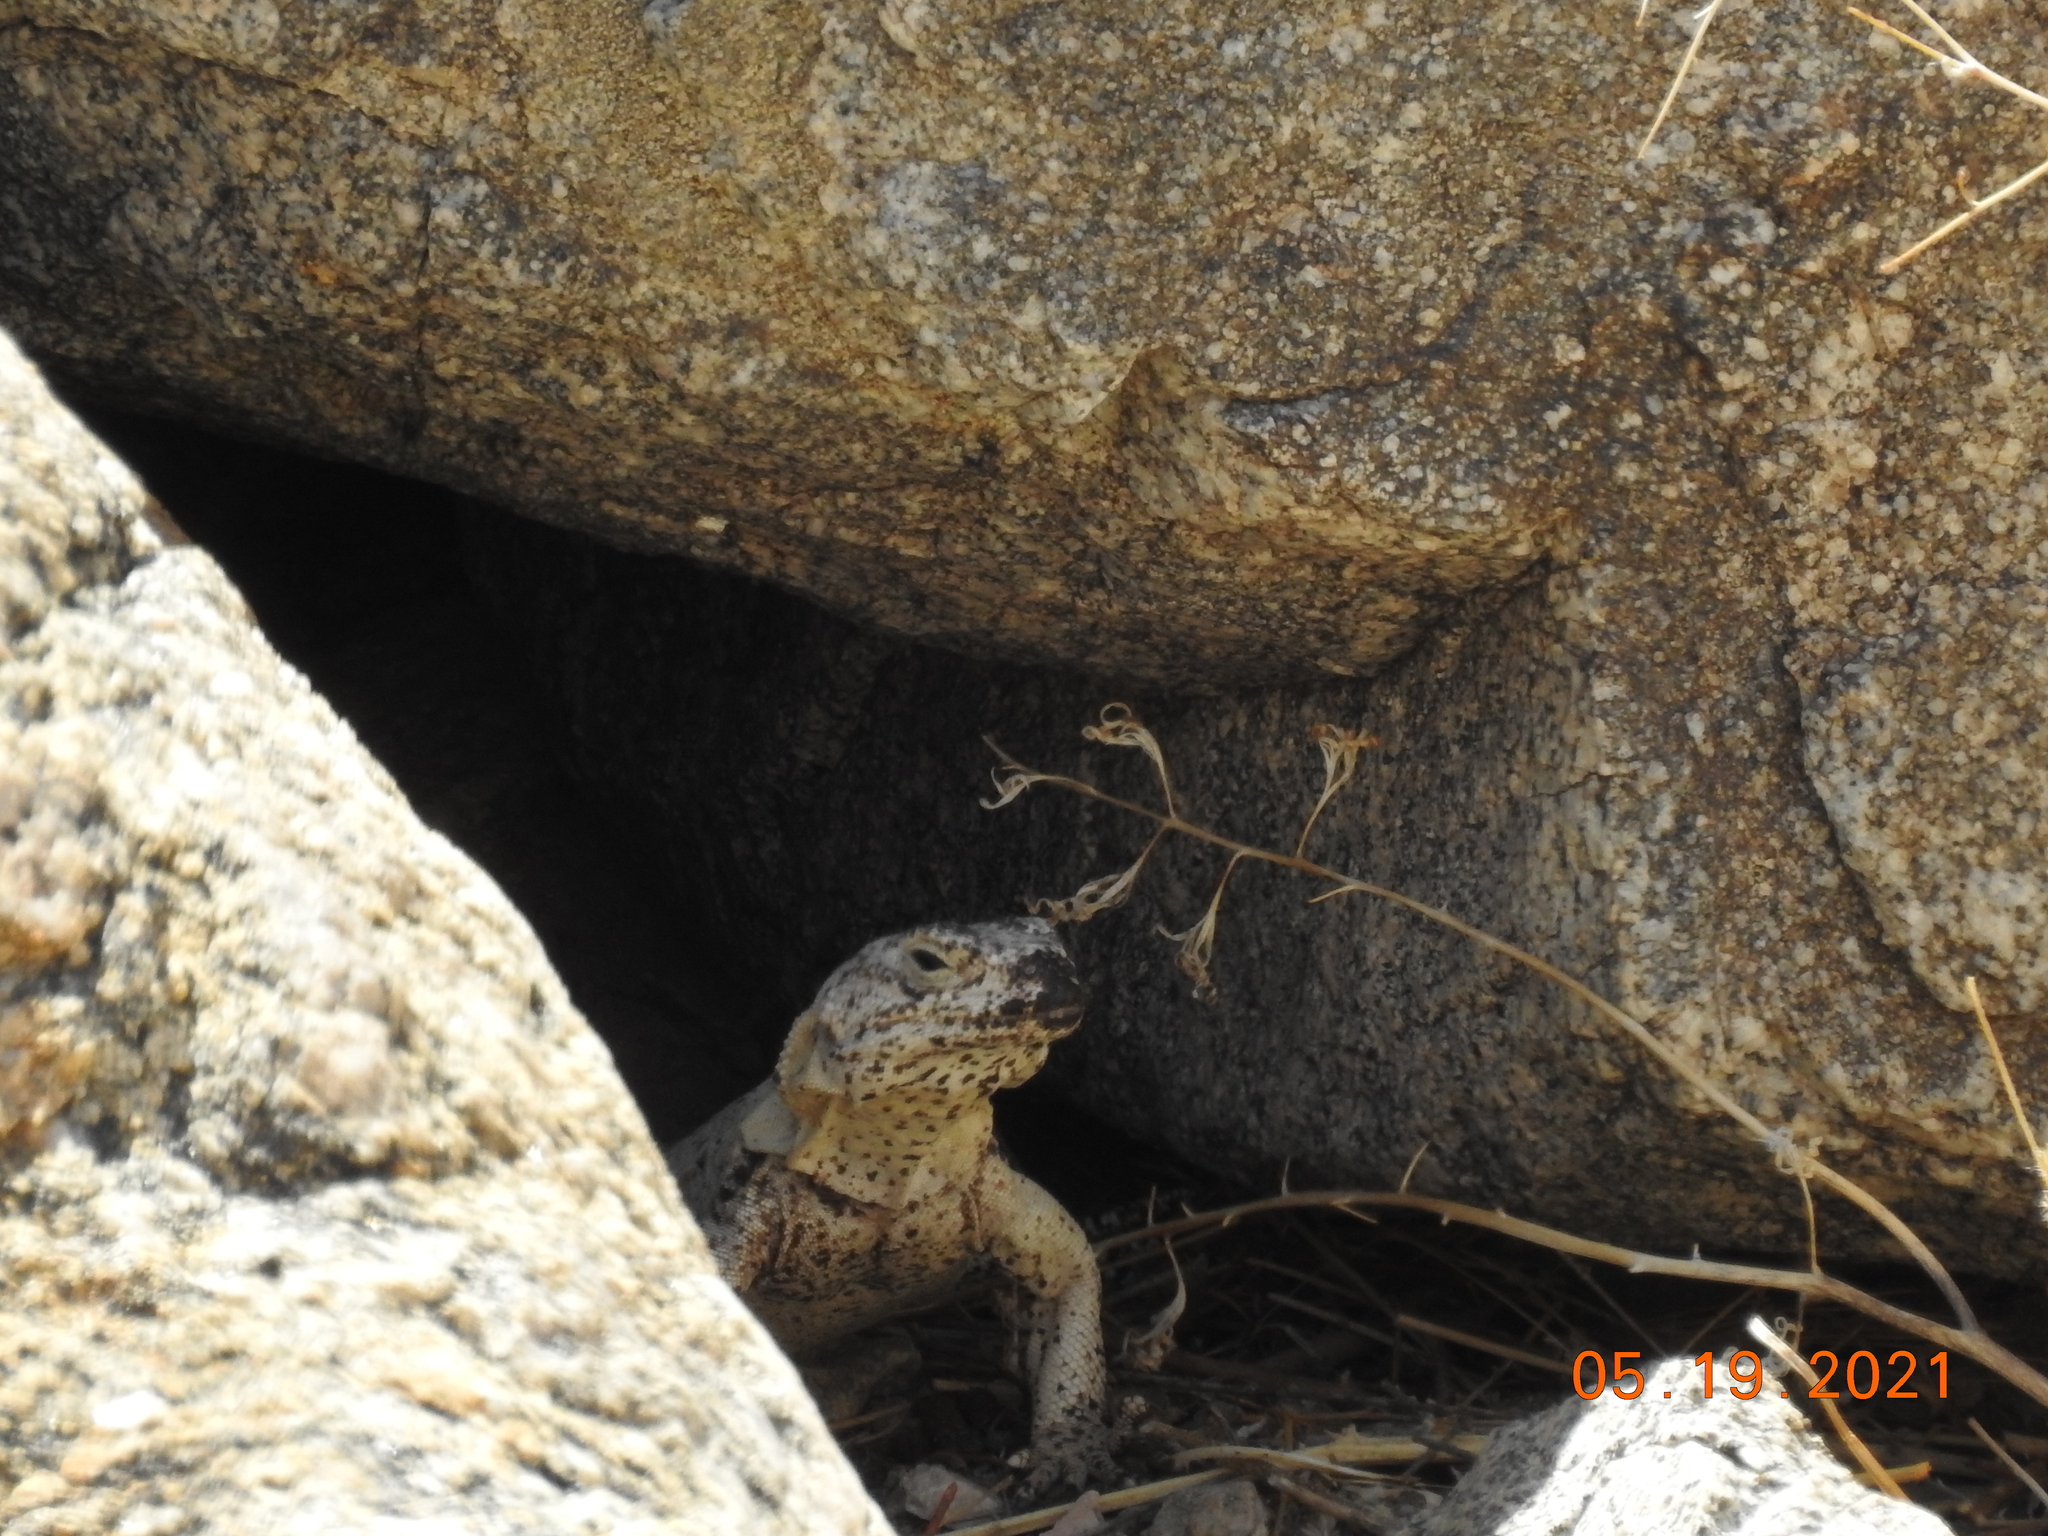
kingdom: Animalia
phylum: Chordata
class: Squamata
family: Iguanidae
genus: Sauromalus
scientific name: Sauromalus ater
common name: Northern chuckwalla
